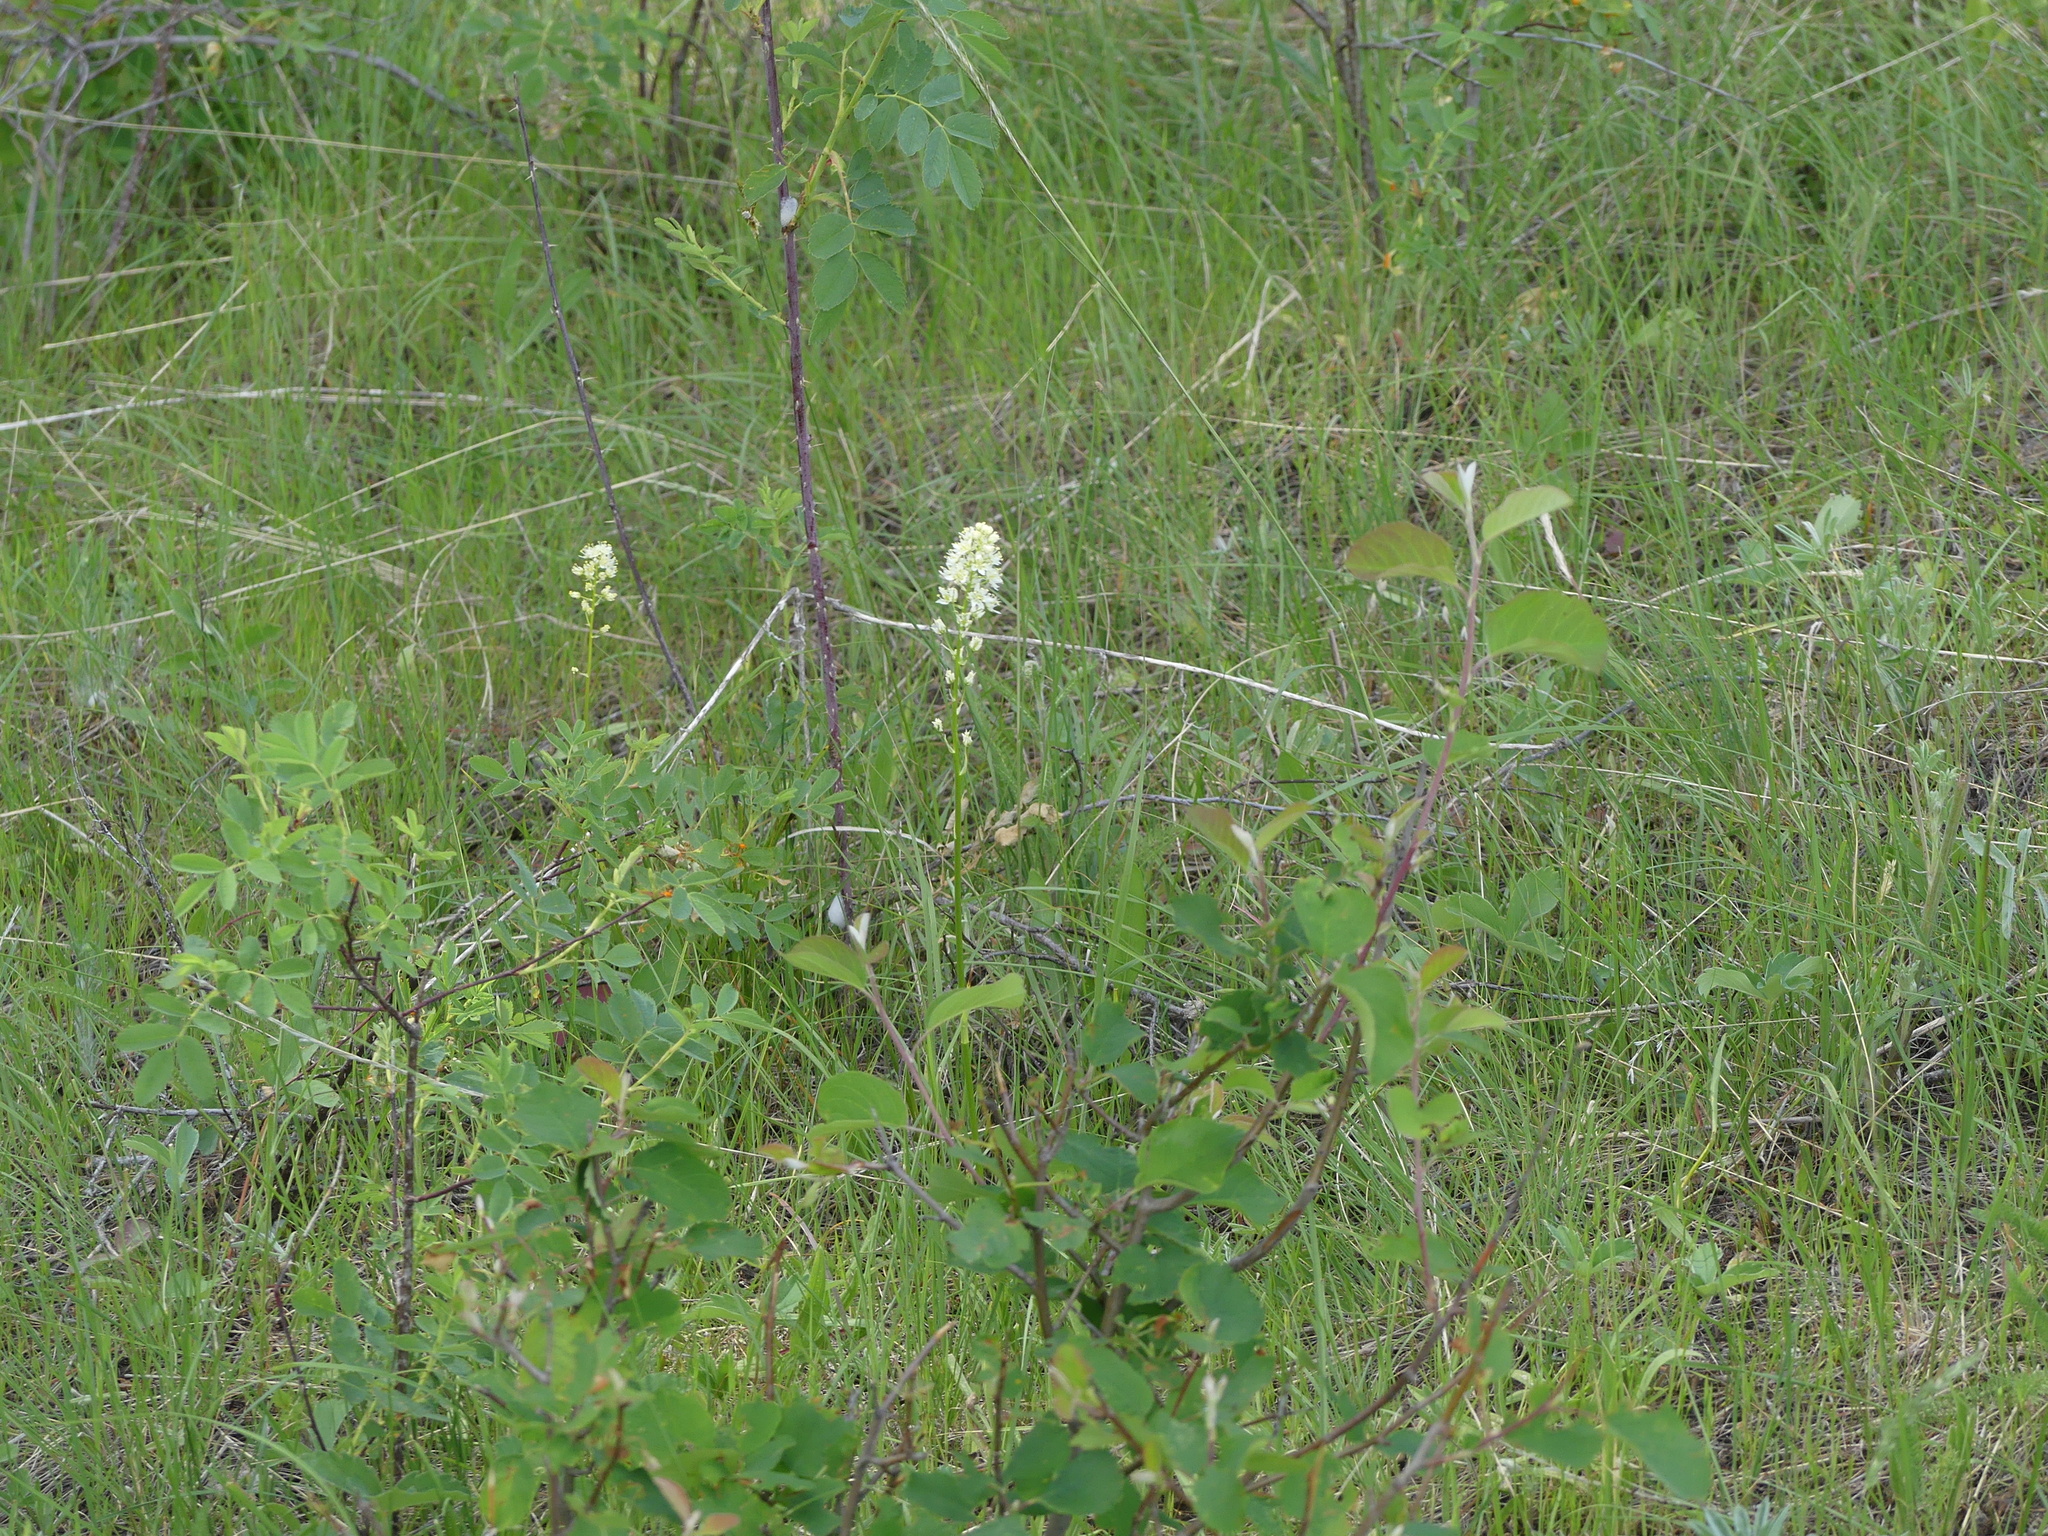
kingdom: Plantae
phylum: Tracheophyta
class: Liliopsida
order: Liliales
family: Melanthiaceae
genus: Toxicoscordion
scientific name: Toxicoscordion venenosum
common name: Meadow death camas
